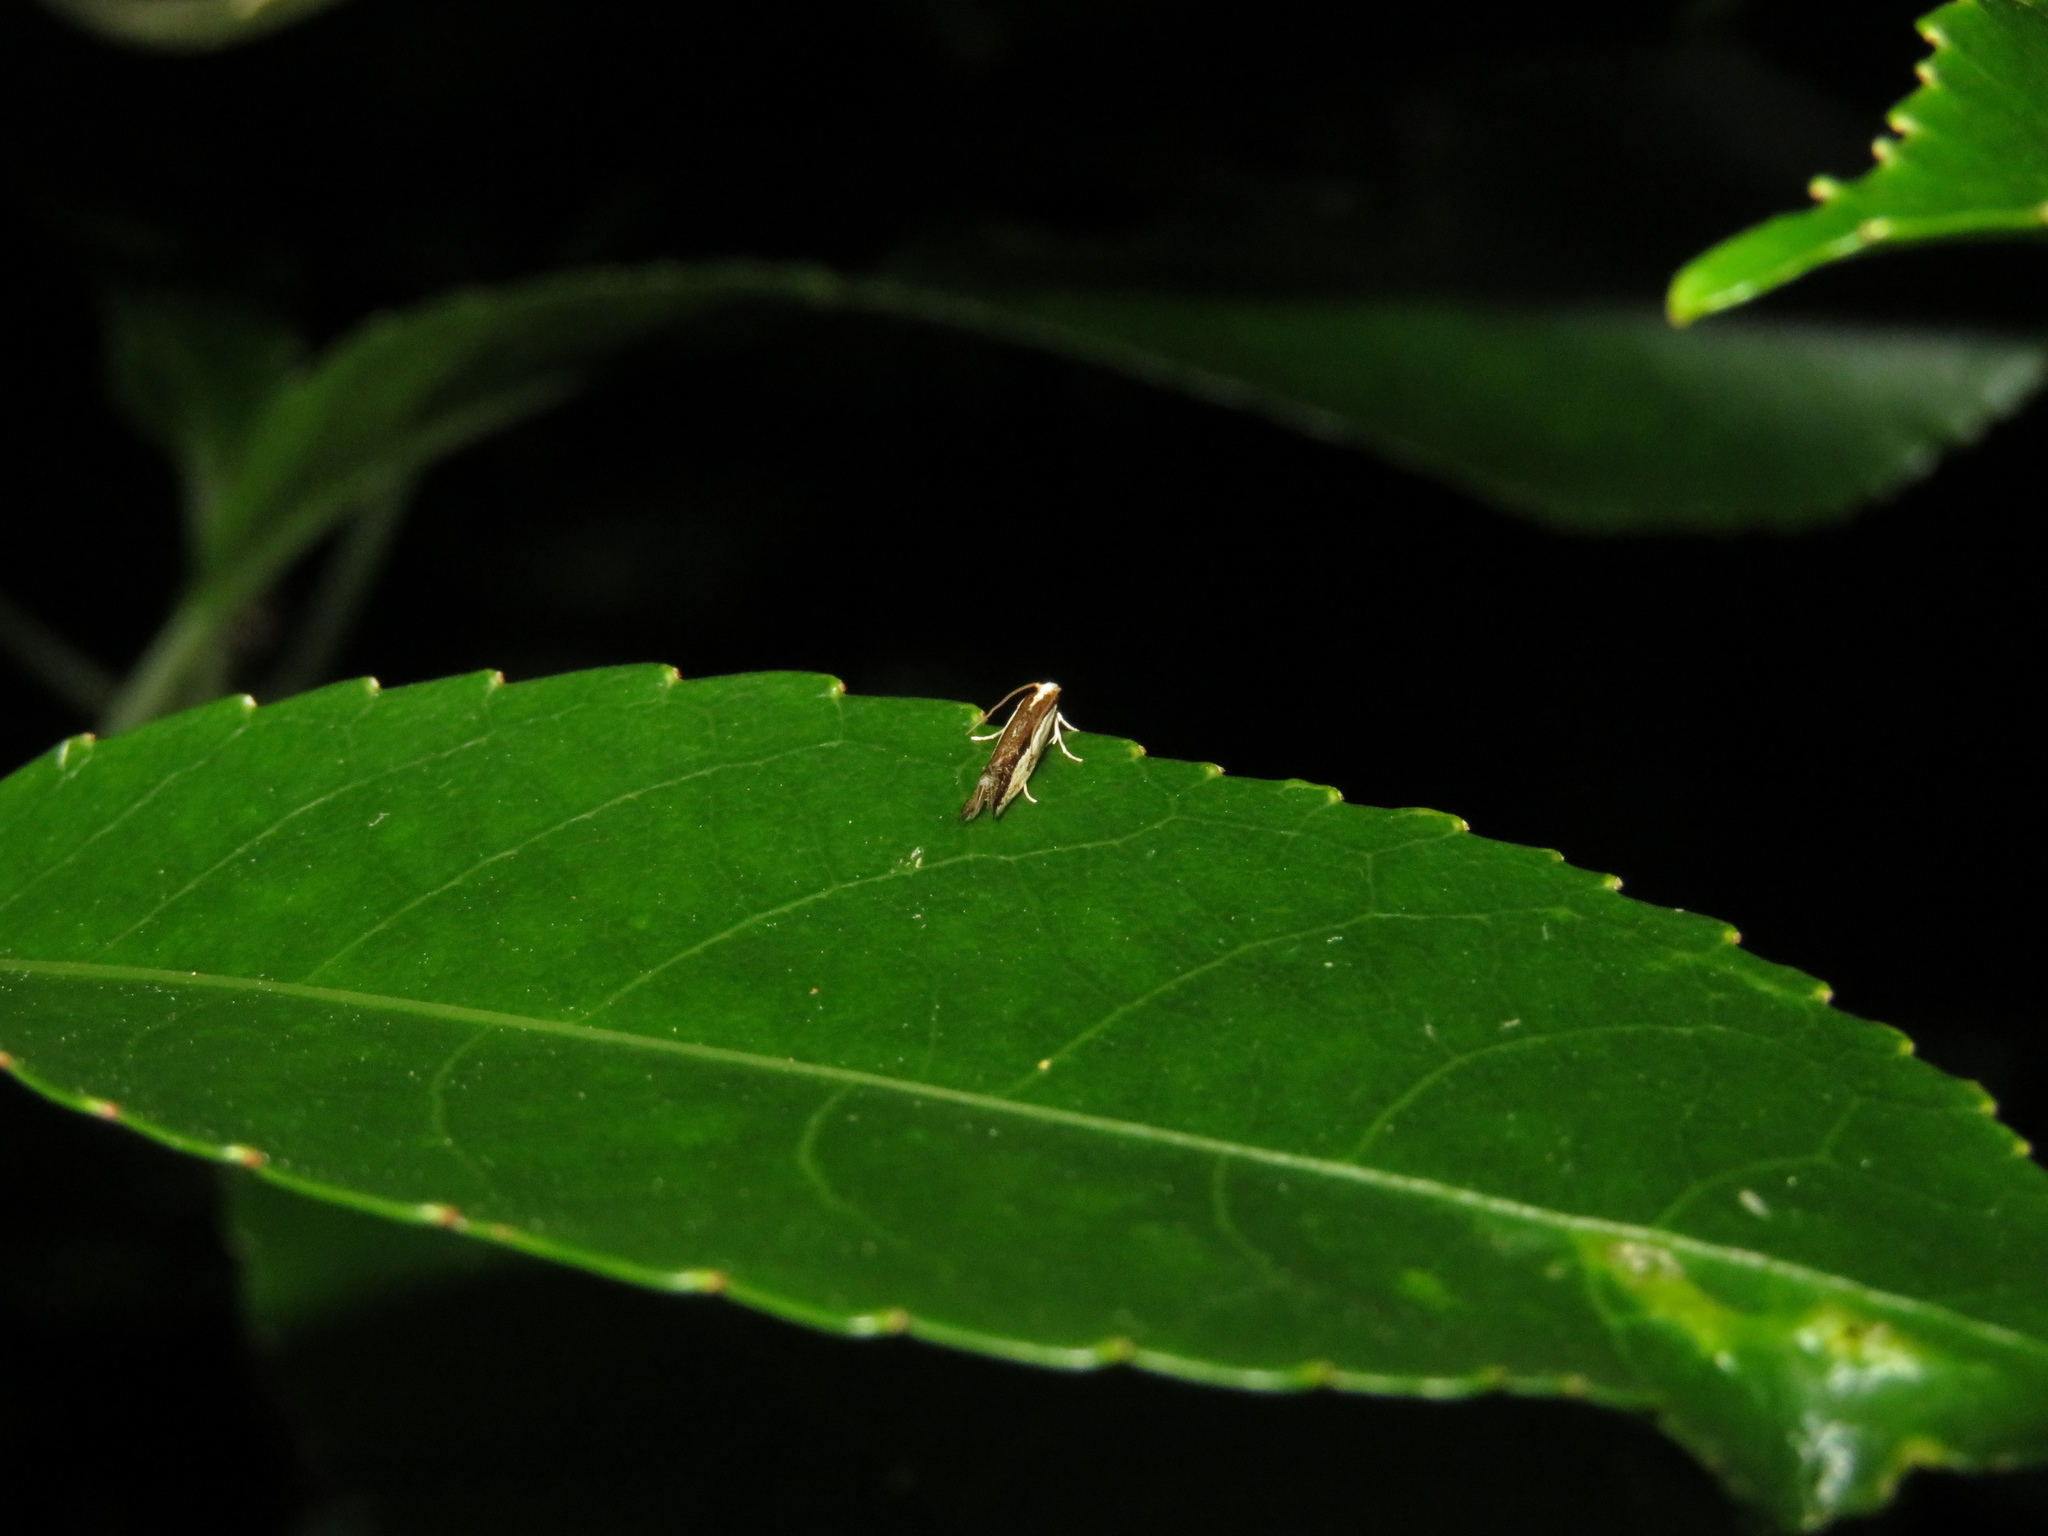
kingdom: Animalia
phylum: Arthropoda
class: Insecta
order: Lepidoptera
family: Tineidae
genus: Erechthias
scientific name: Erechthias chionodira
